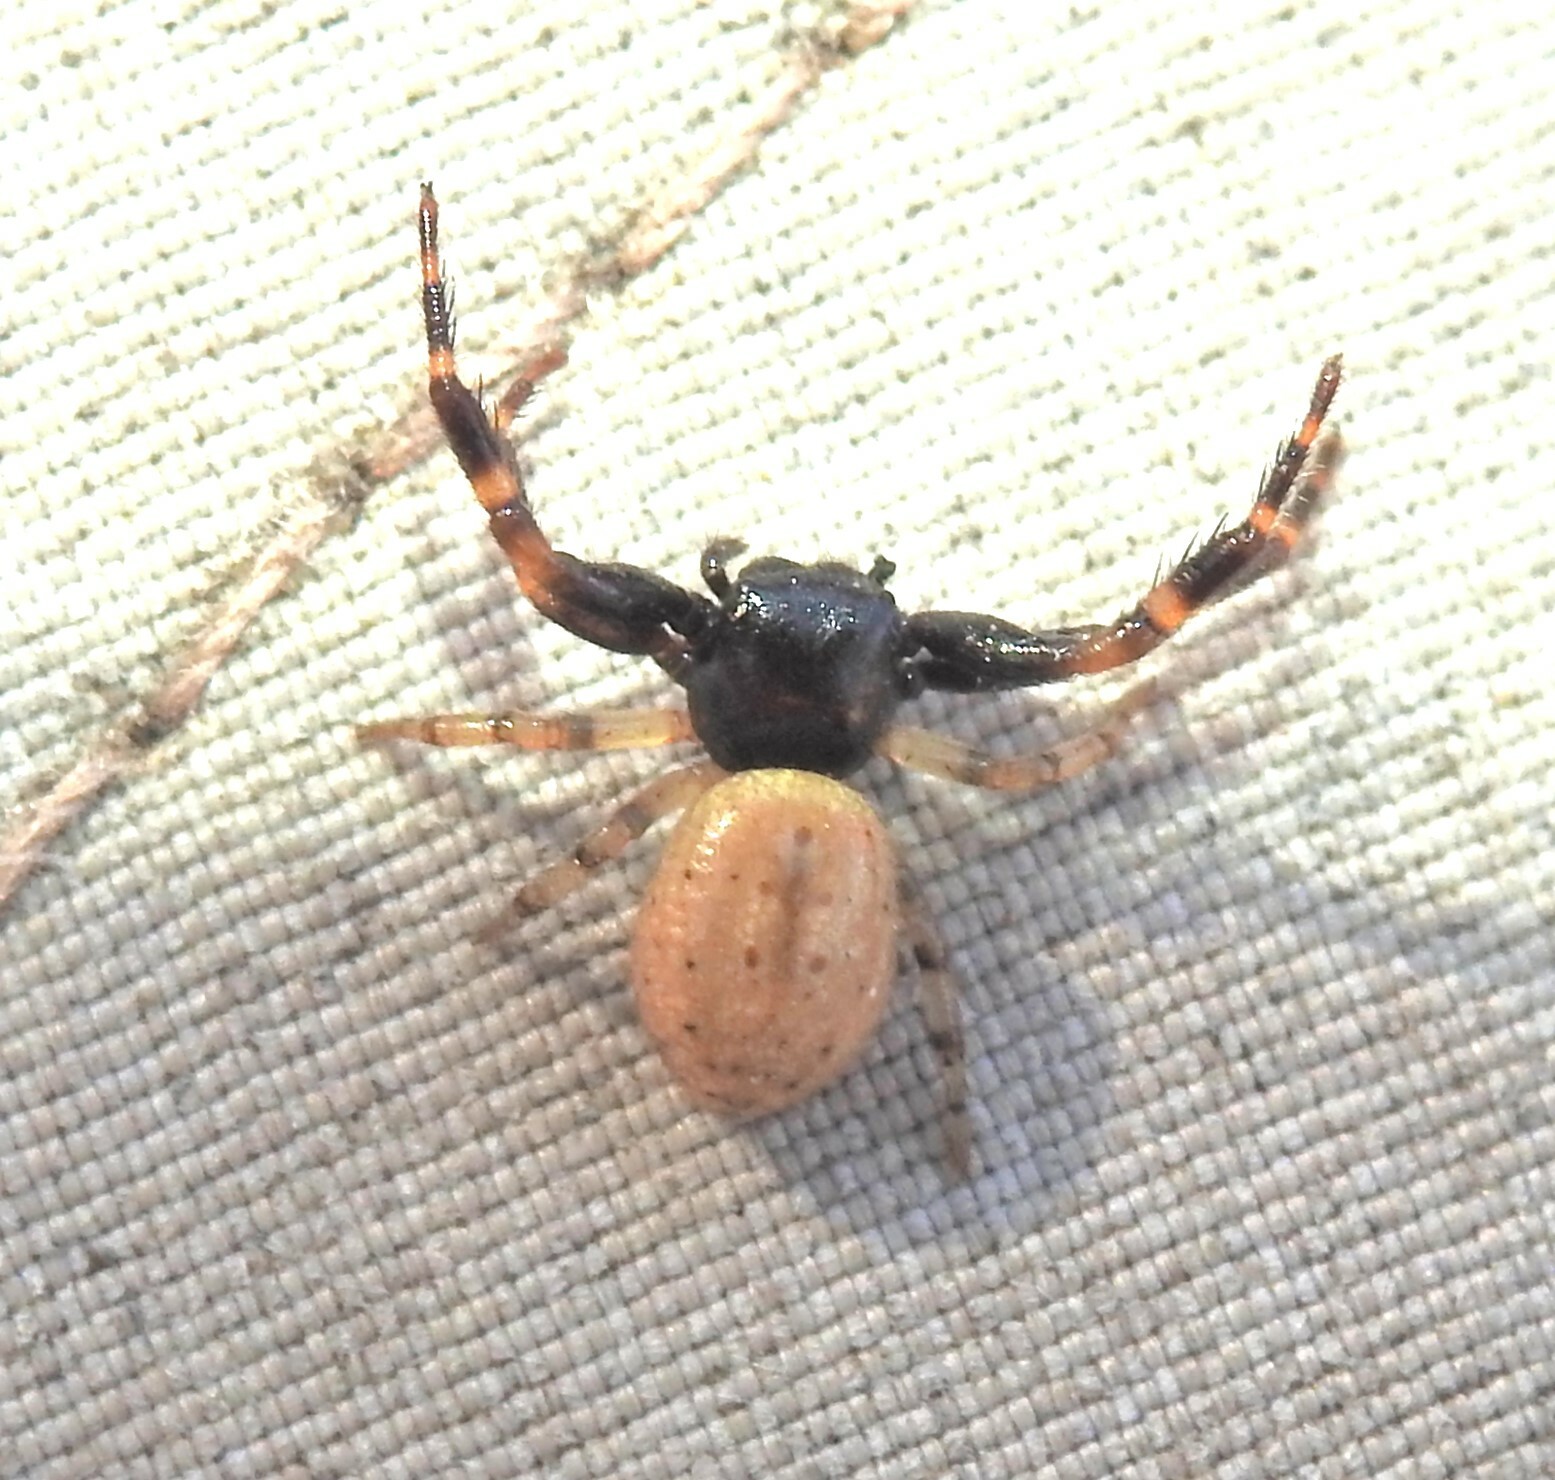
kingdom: Animalia
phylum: Arthropoda
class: Arachnida
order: Araneae
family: Thomisidae
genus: Tharpyna
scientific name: Tharpyna venusta
